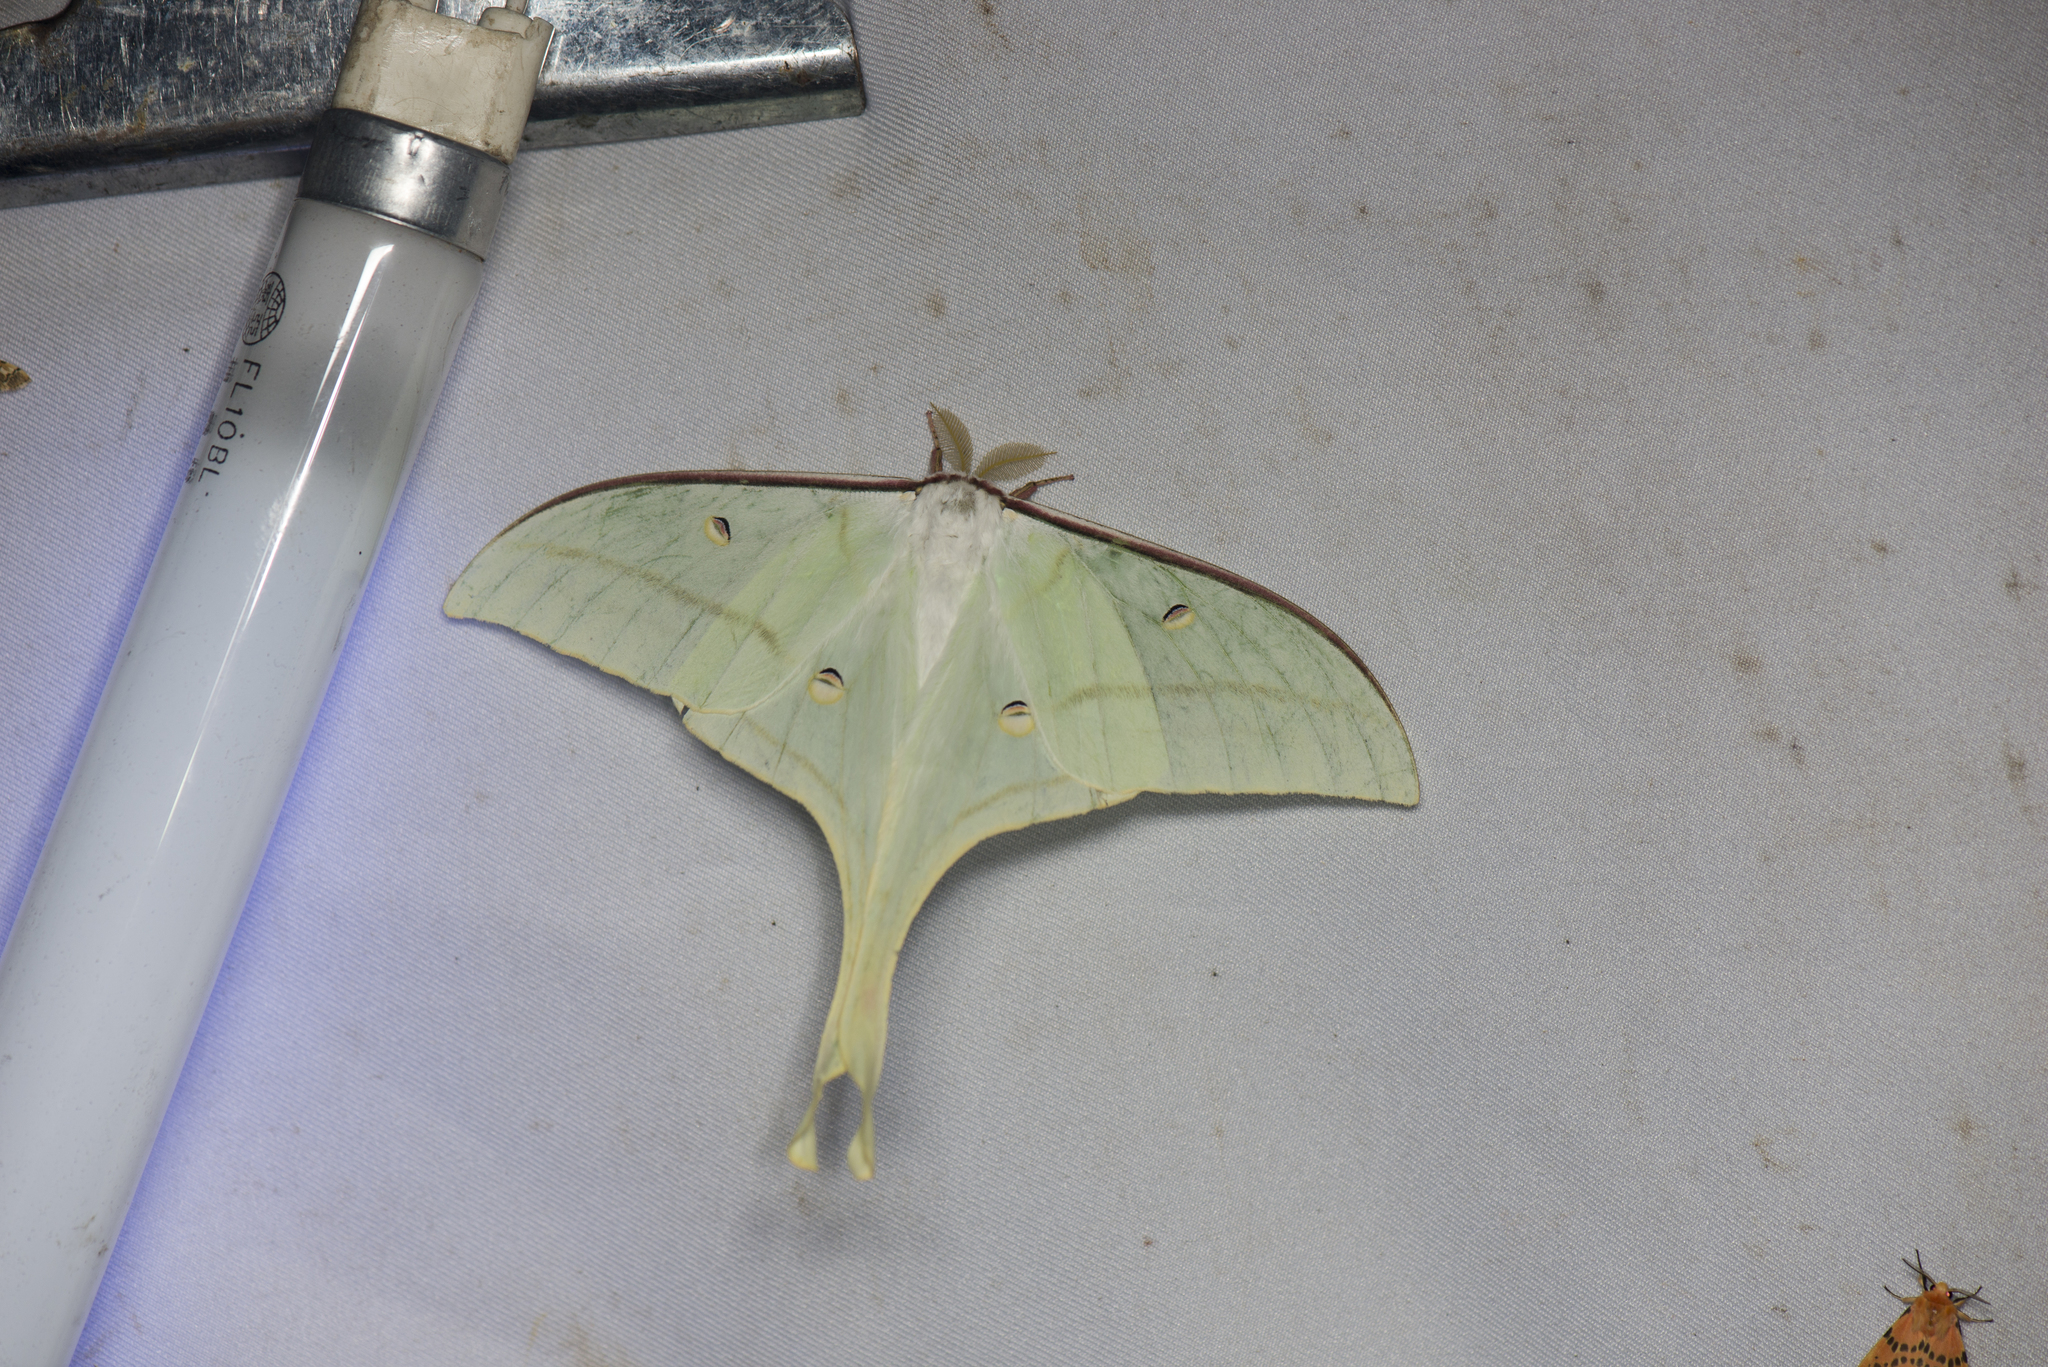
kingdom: Animalia
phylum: Arthropoda
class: Insecta
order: Lepidoptera
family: Saturniidae
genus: Actias
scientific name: Actias ningpoana
